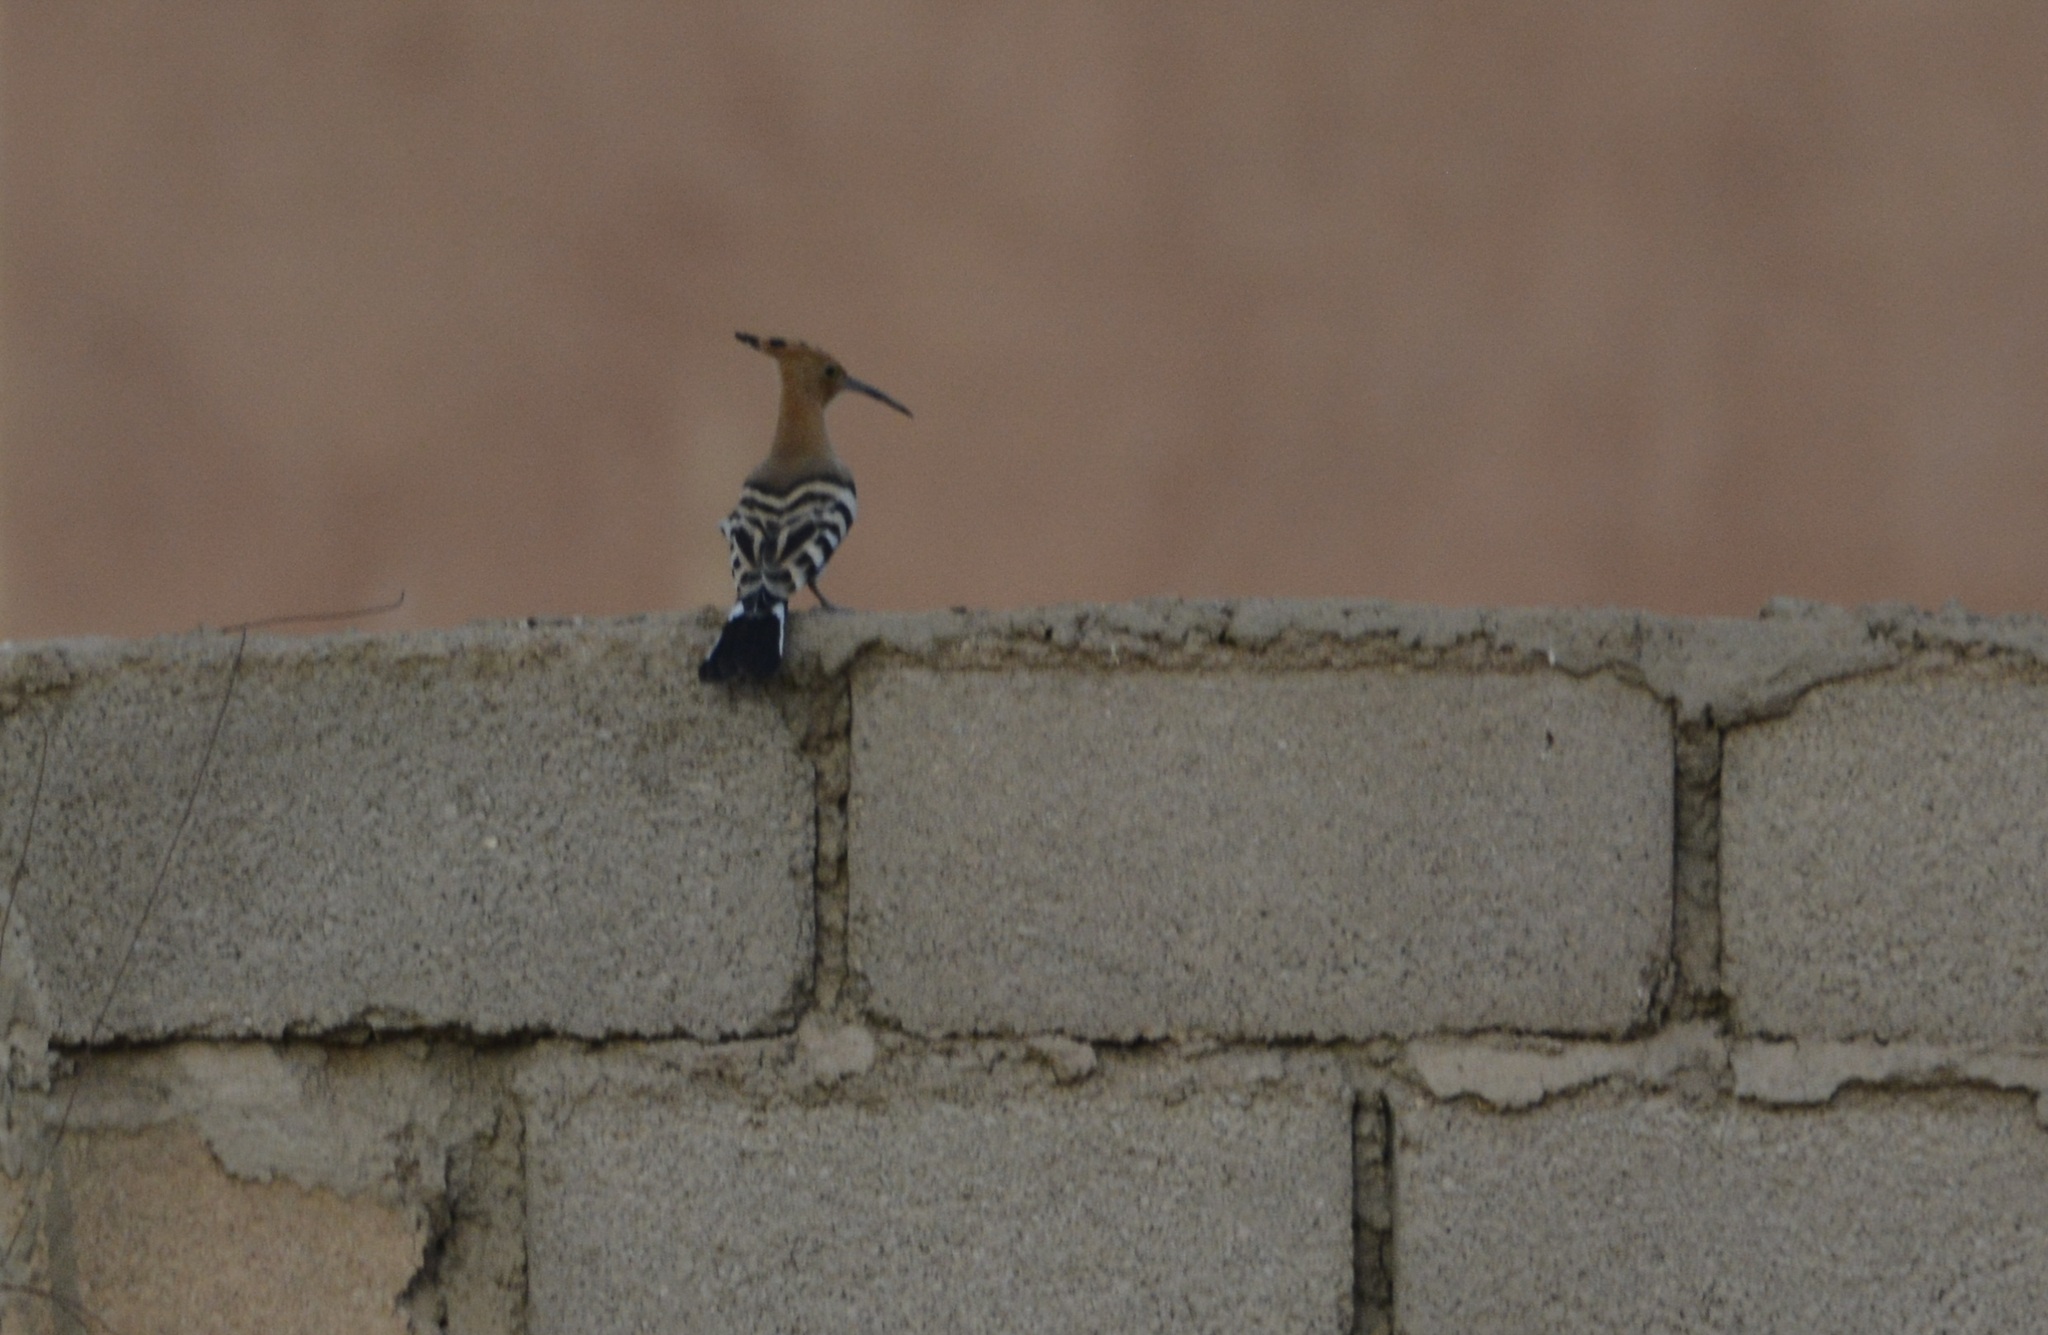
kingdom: Animalia
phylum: Chordata
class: Aves
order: Bucerotiformes
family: Upupidae
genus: Upupa
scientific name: Upupa epops
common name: Eurasian hoopoe
